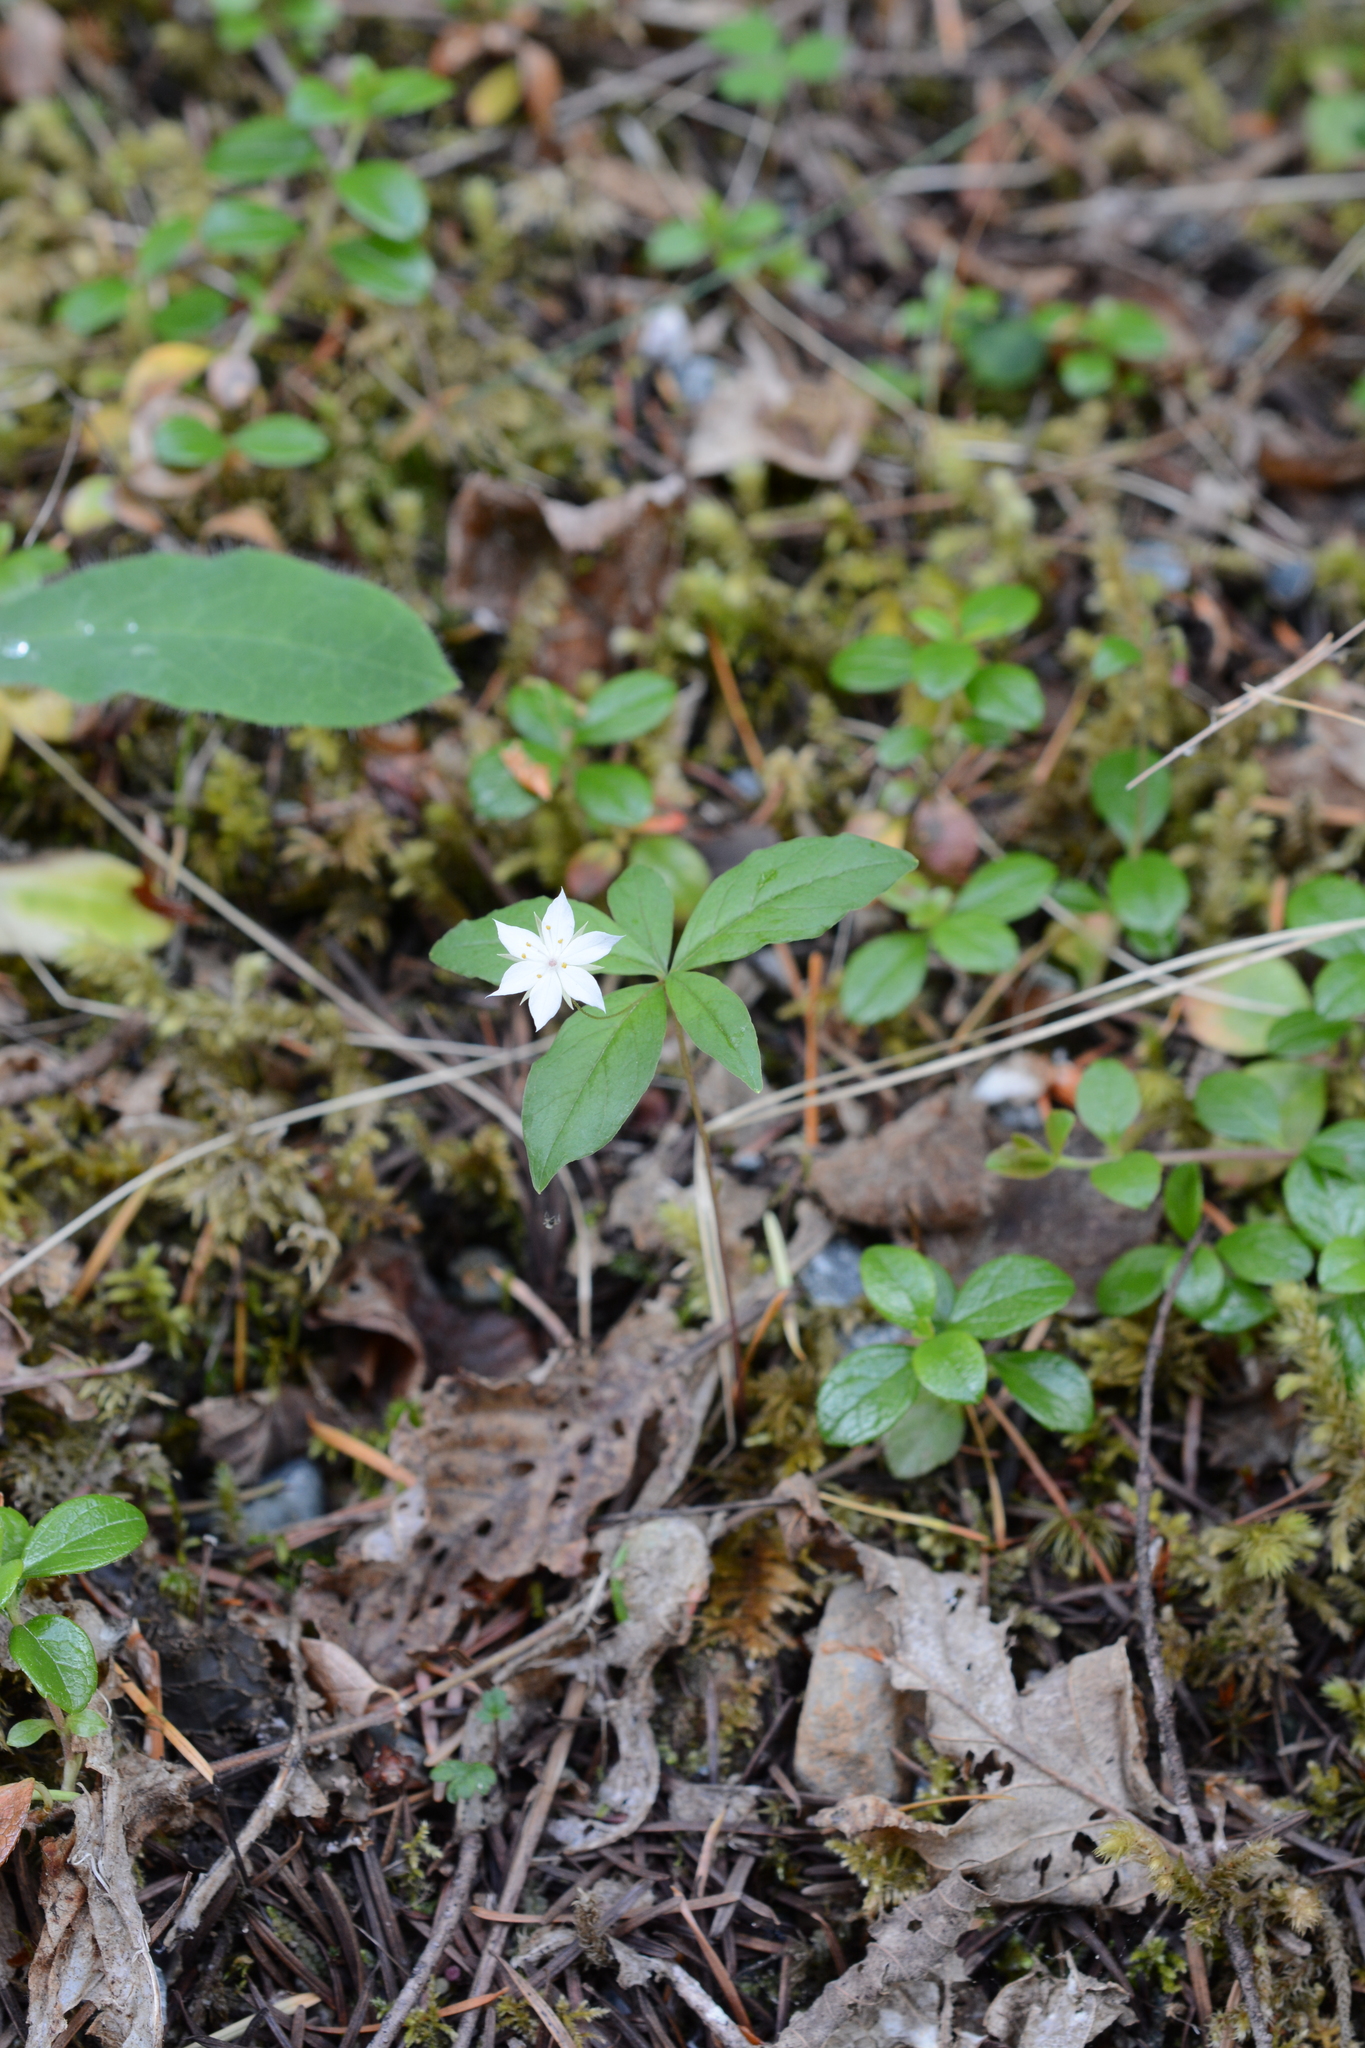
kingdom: Plantae
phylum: Tracheophyta
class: Magnoliopsida
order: Ericales
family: Primulaceae
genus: Lysimachia
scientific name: Lysimachia latifolia
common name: Pacific starflower
